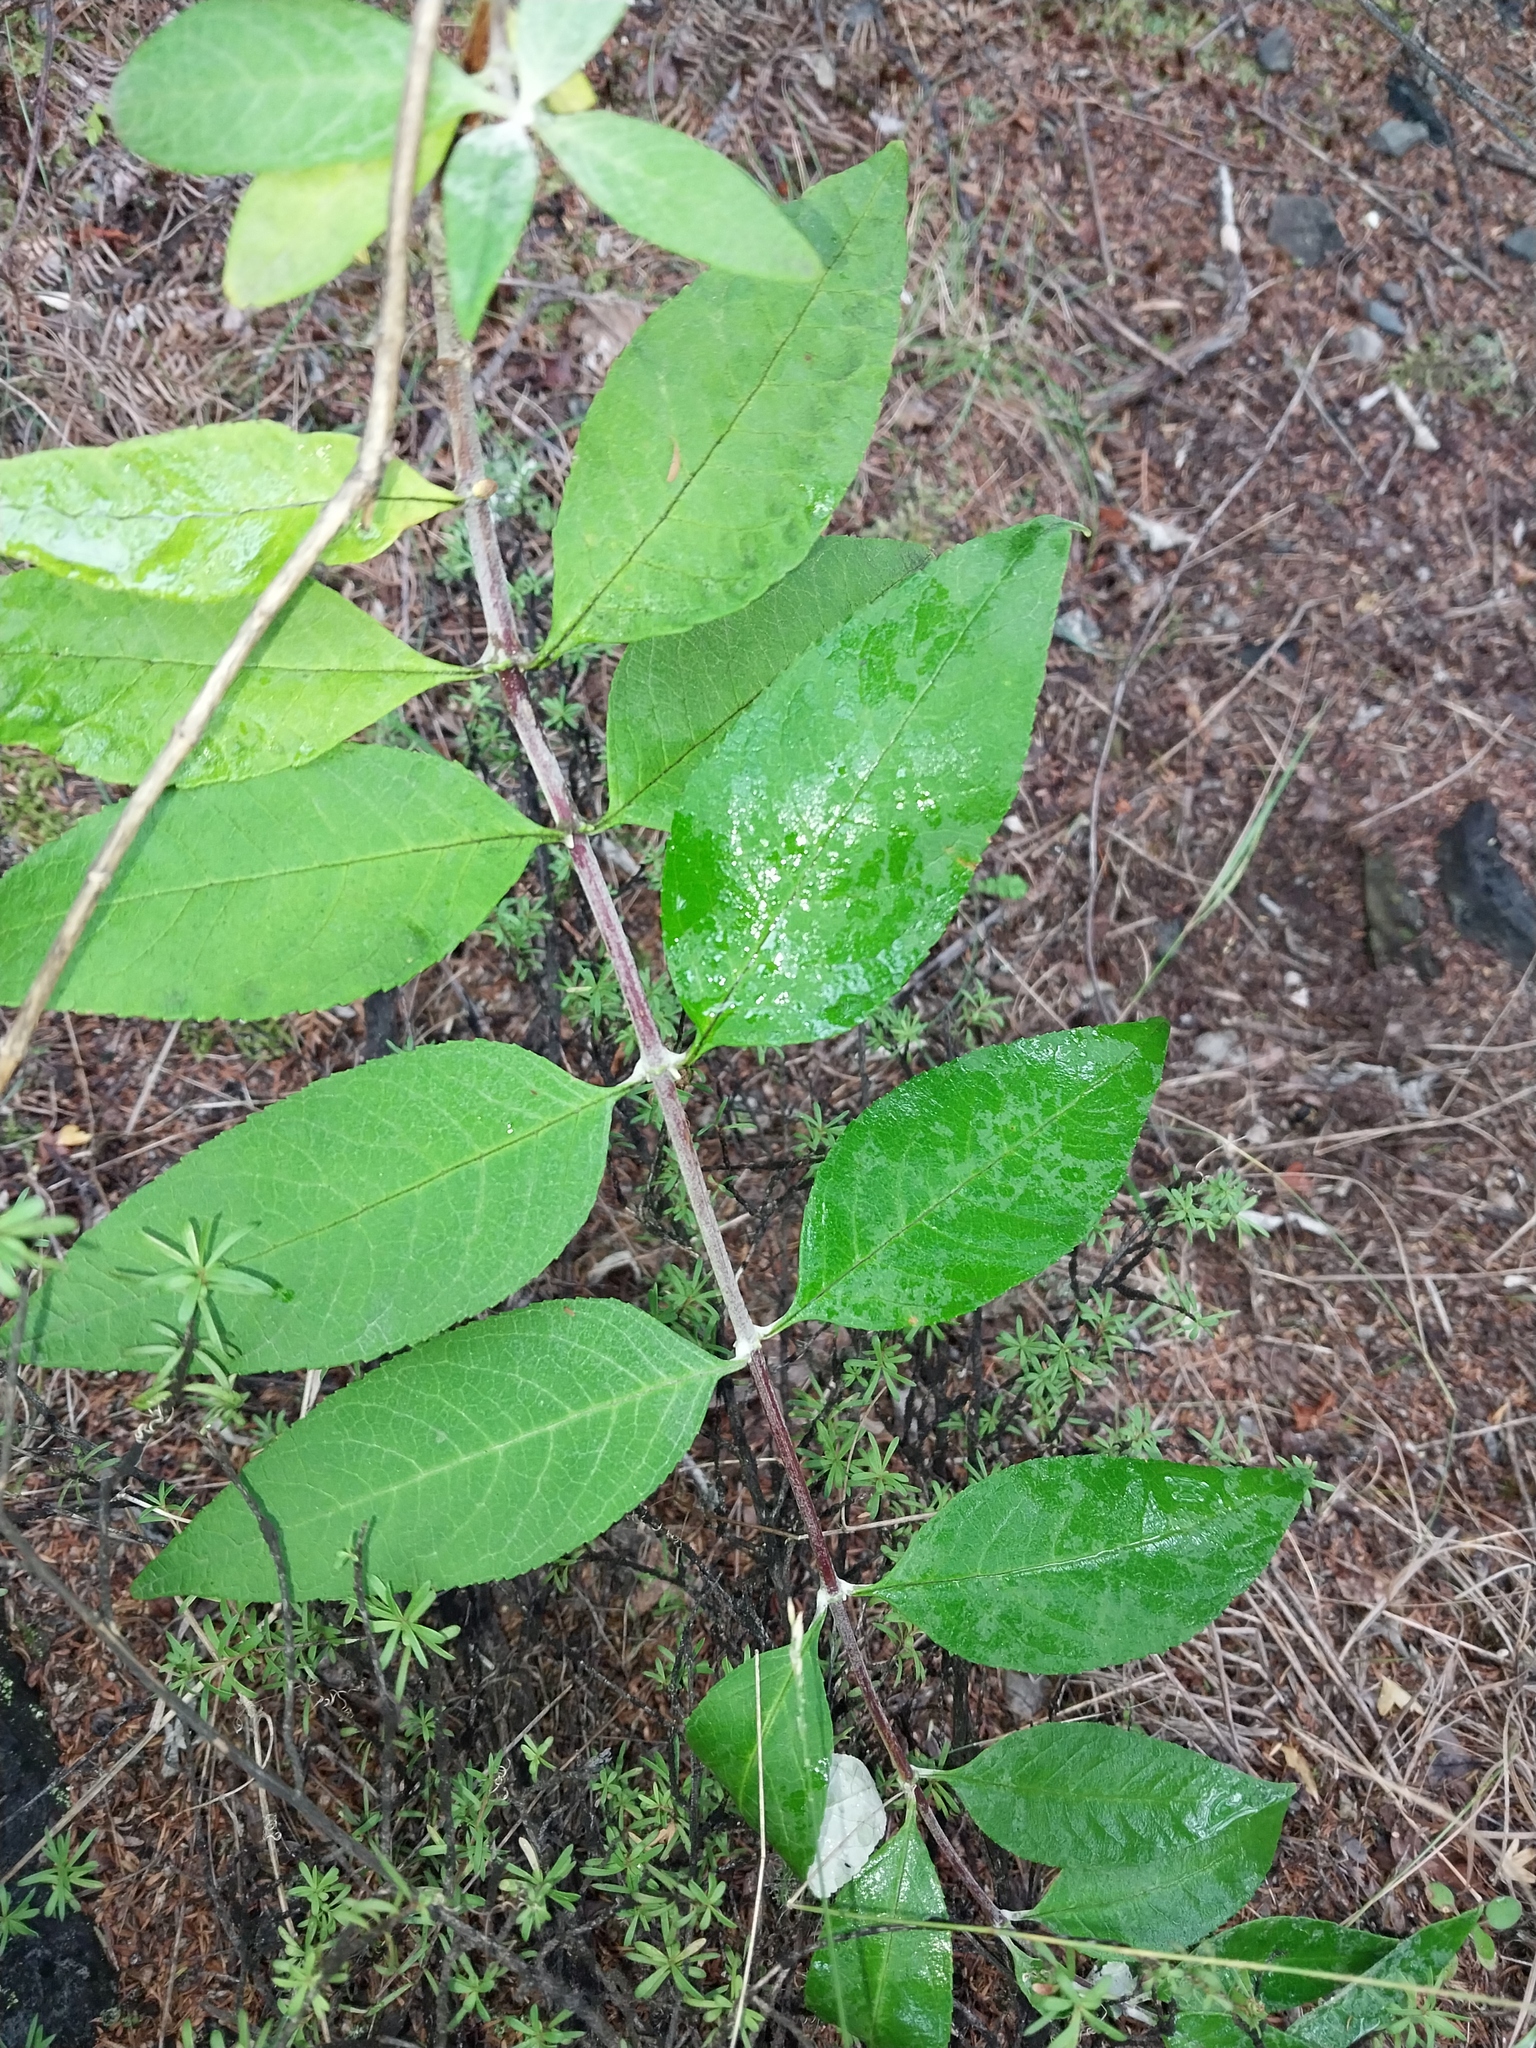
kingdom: Plantae
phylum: Tracheophyta
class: Magnoliopsida
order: Lamiales
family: Scrophulariaceae
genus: Buddleja
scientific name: Buddleja davidii
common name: Butterfly-bush
